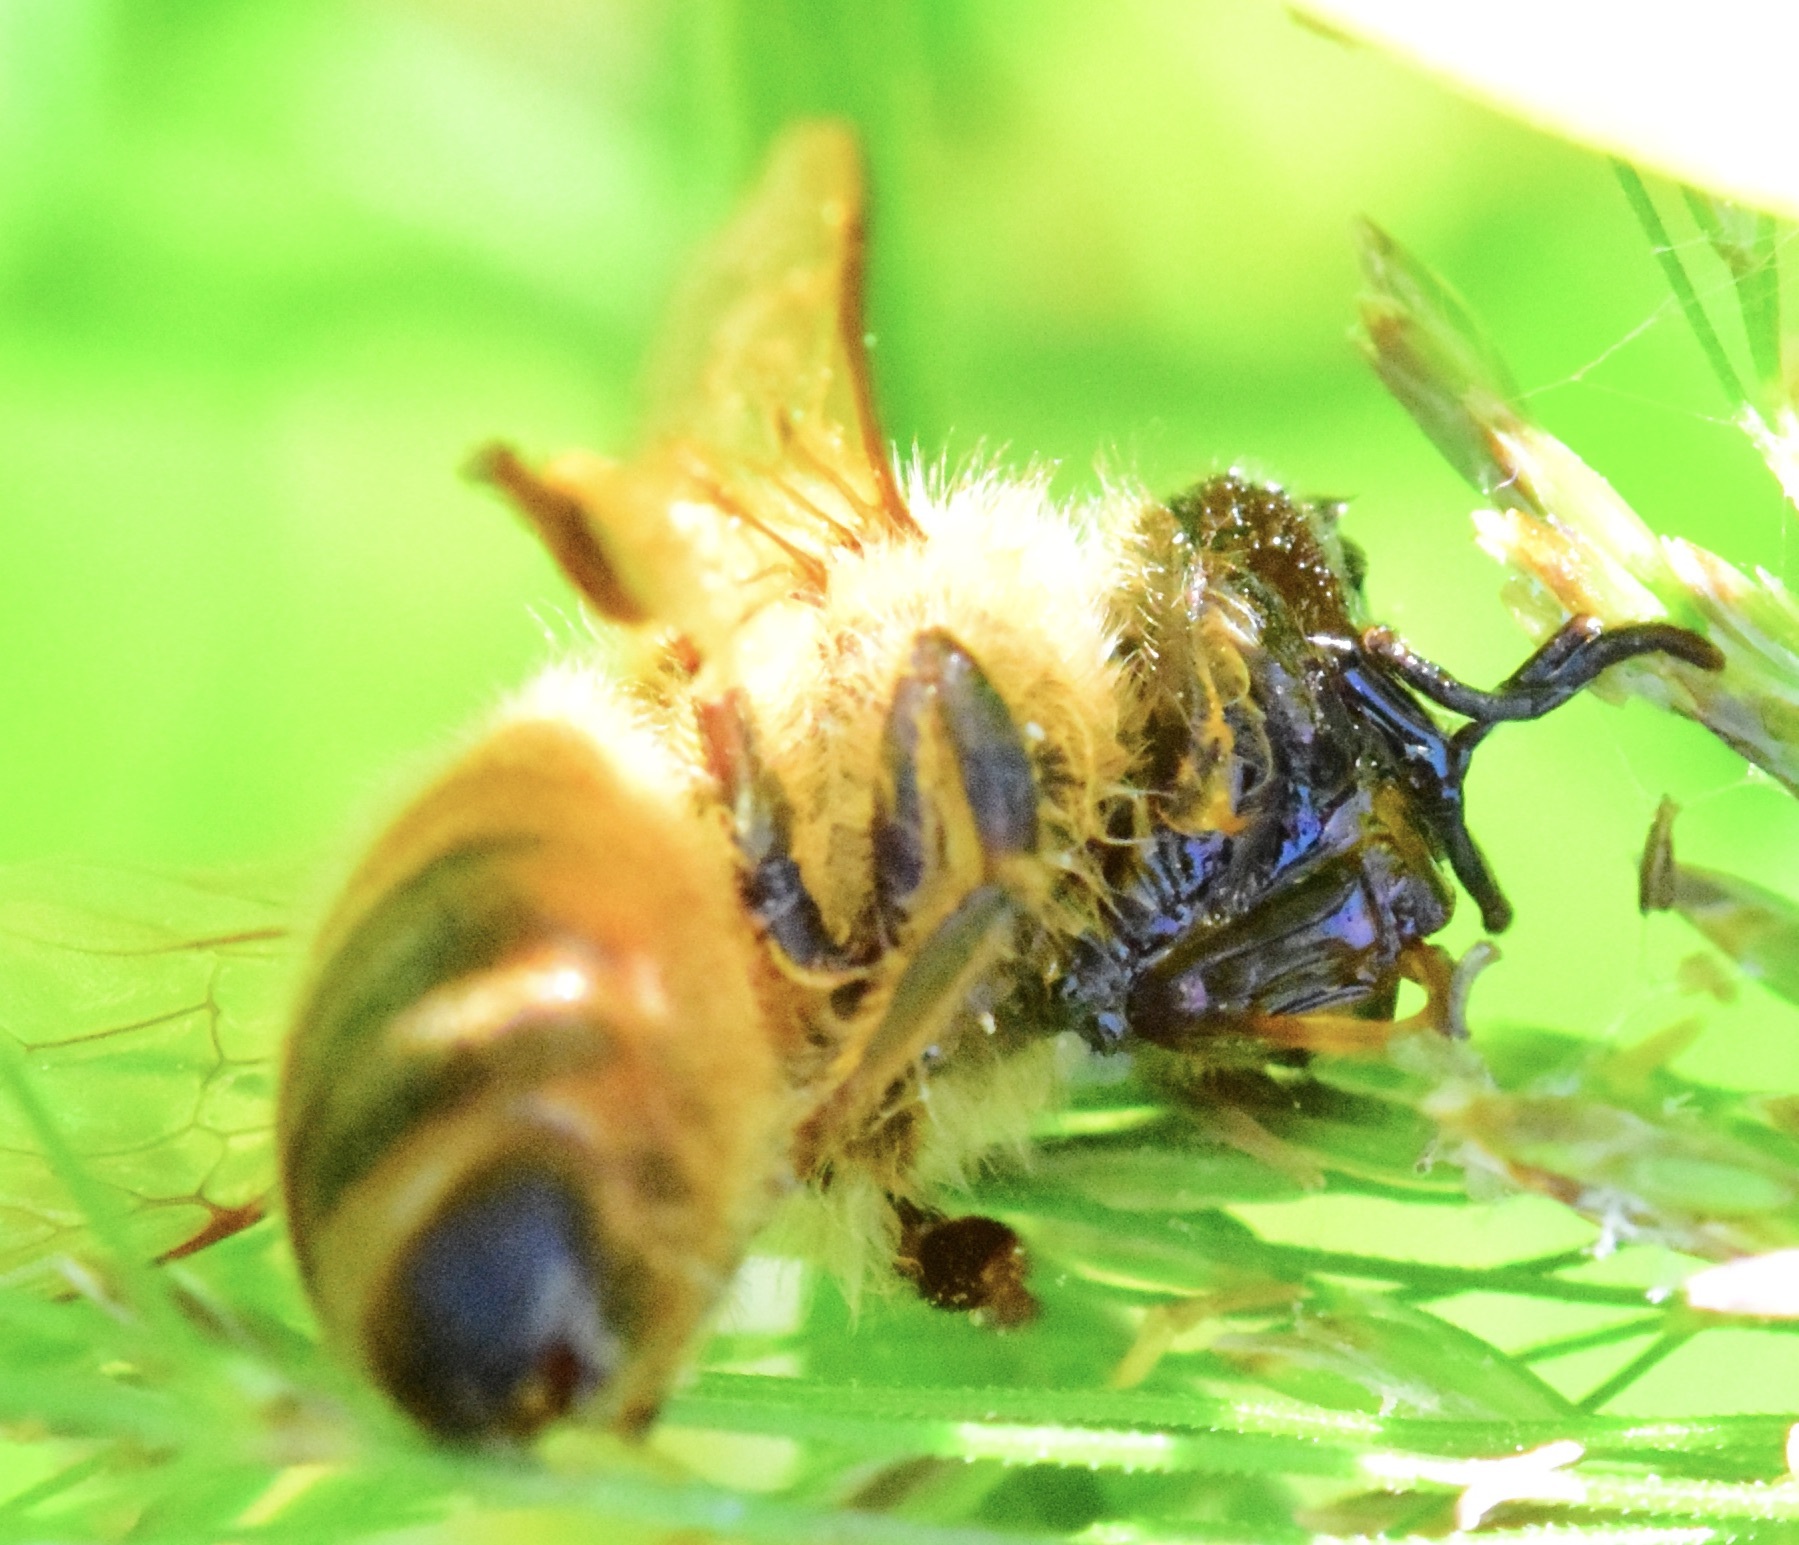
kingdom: Animalia
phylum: Arthropoda
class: Insecta
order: Hymenoptera
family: Apidae
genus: Apis
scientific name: Apis mellifera
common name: Honey bee
